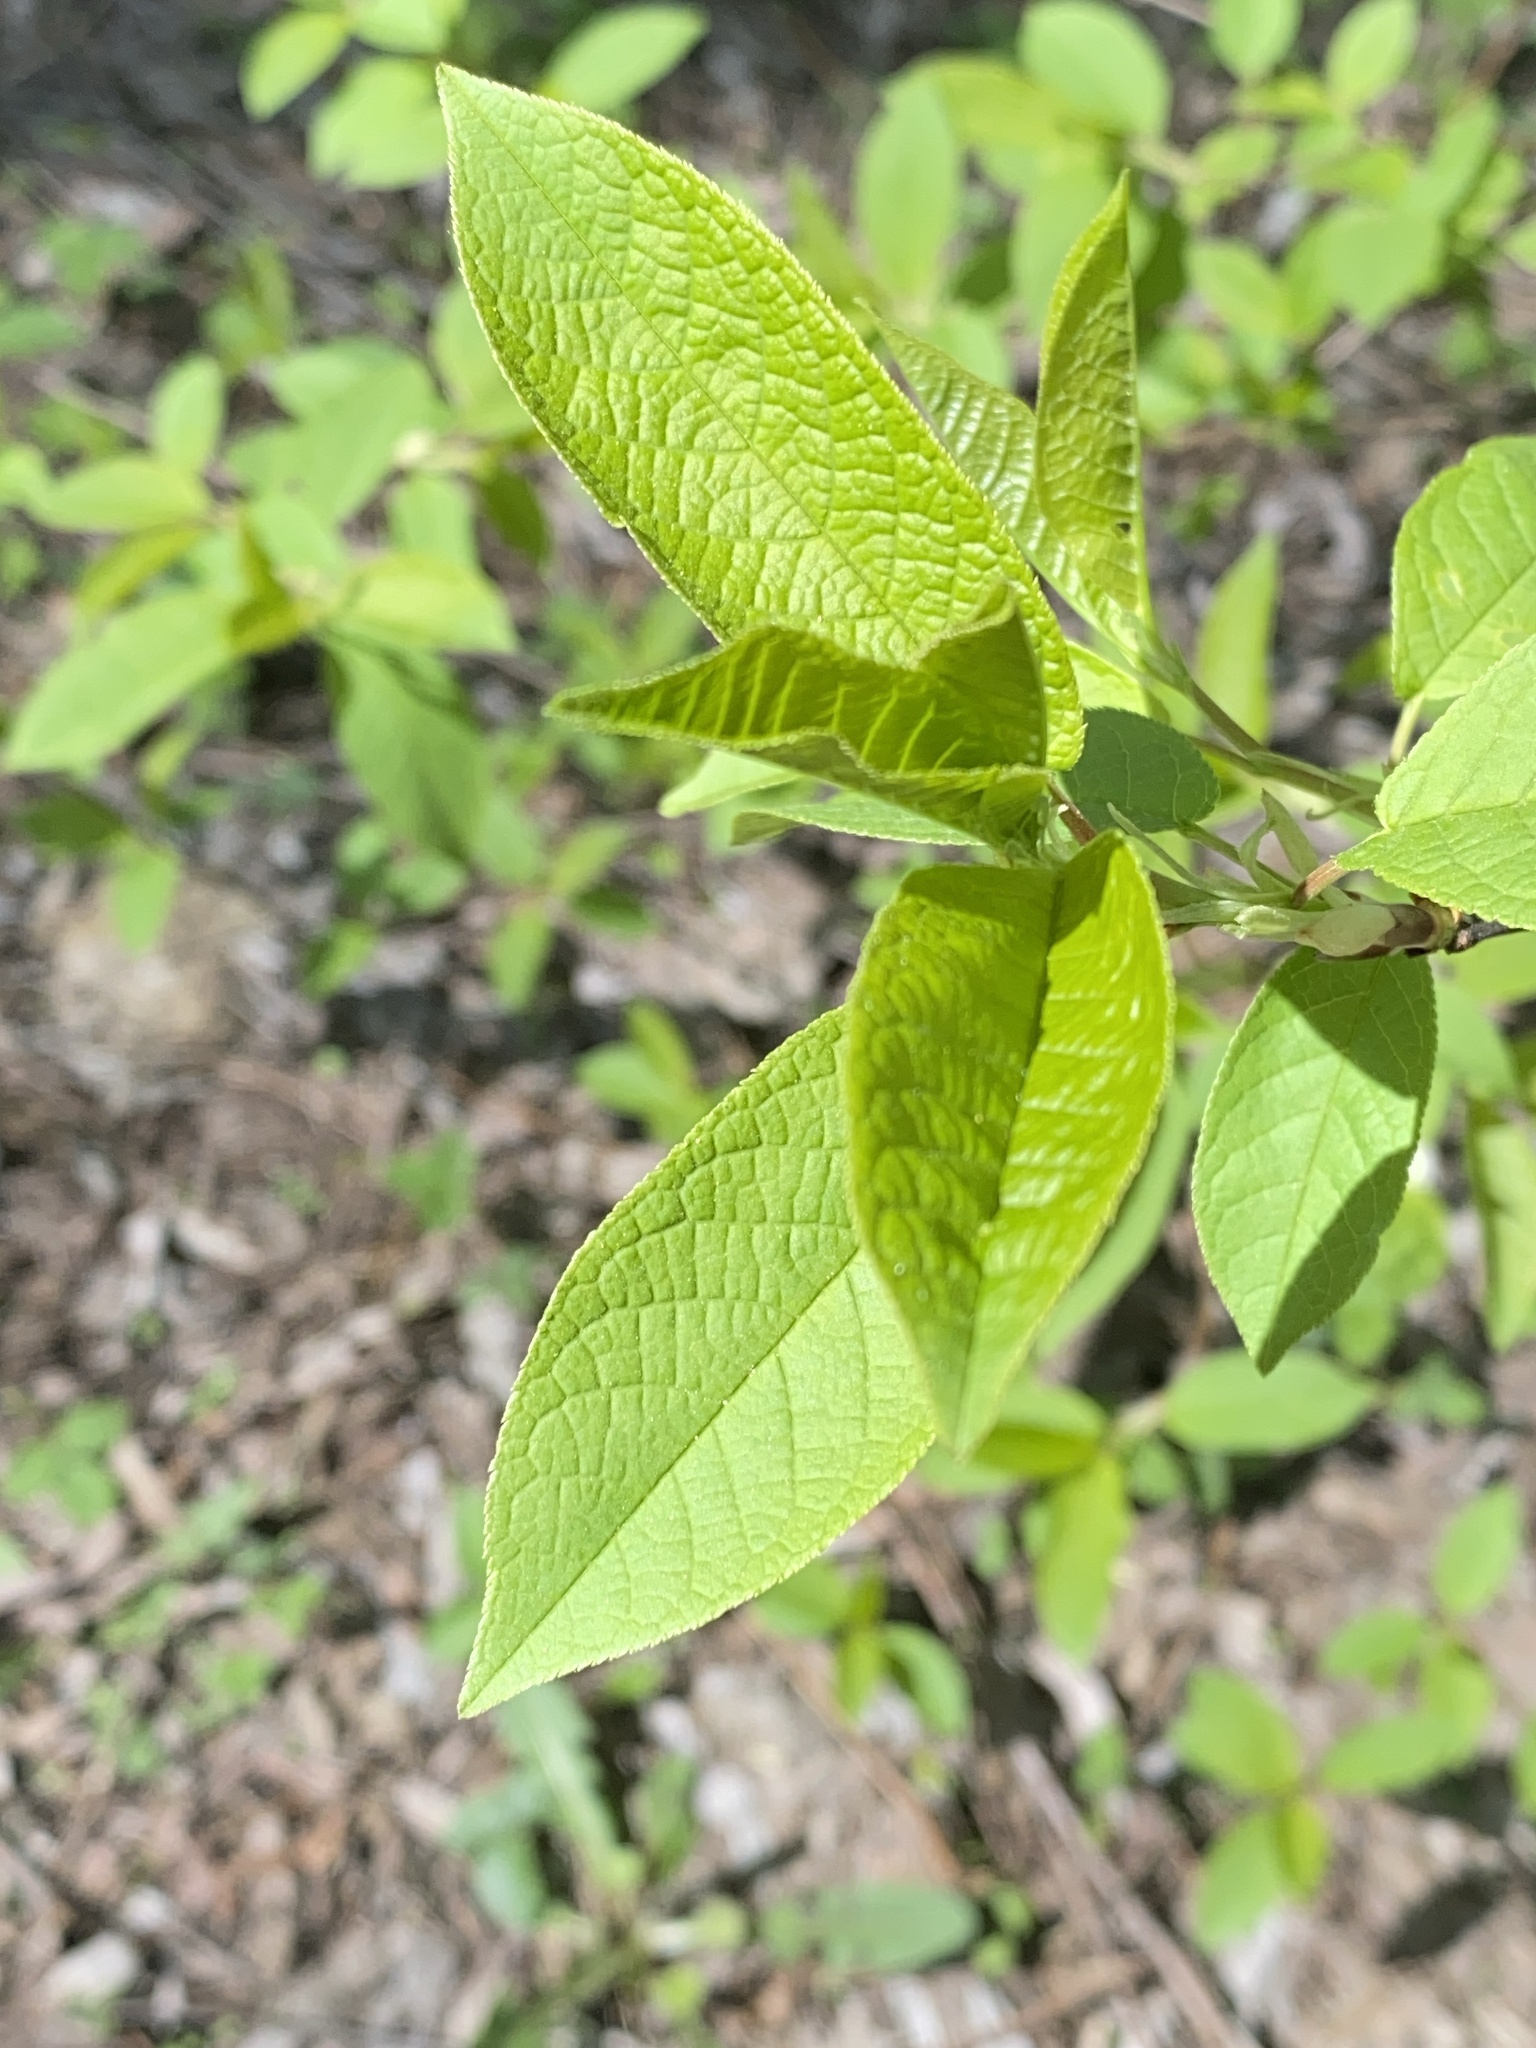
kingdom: Plantae
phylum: Tracheophyta
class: Magnoliopsida
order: Rosales
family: Rosaceae
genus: Prunus
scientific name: Prunus padus
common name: Bird cherry
